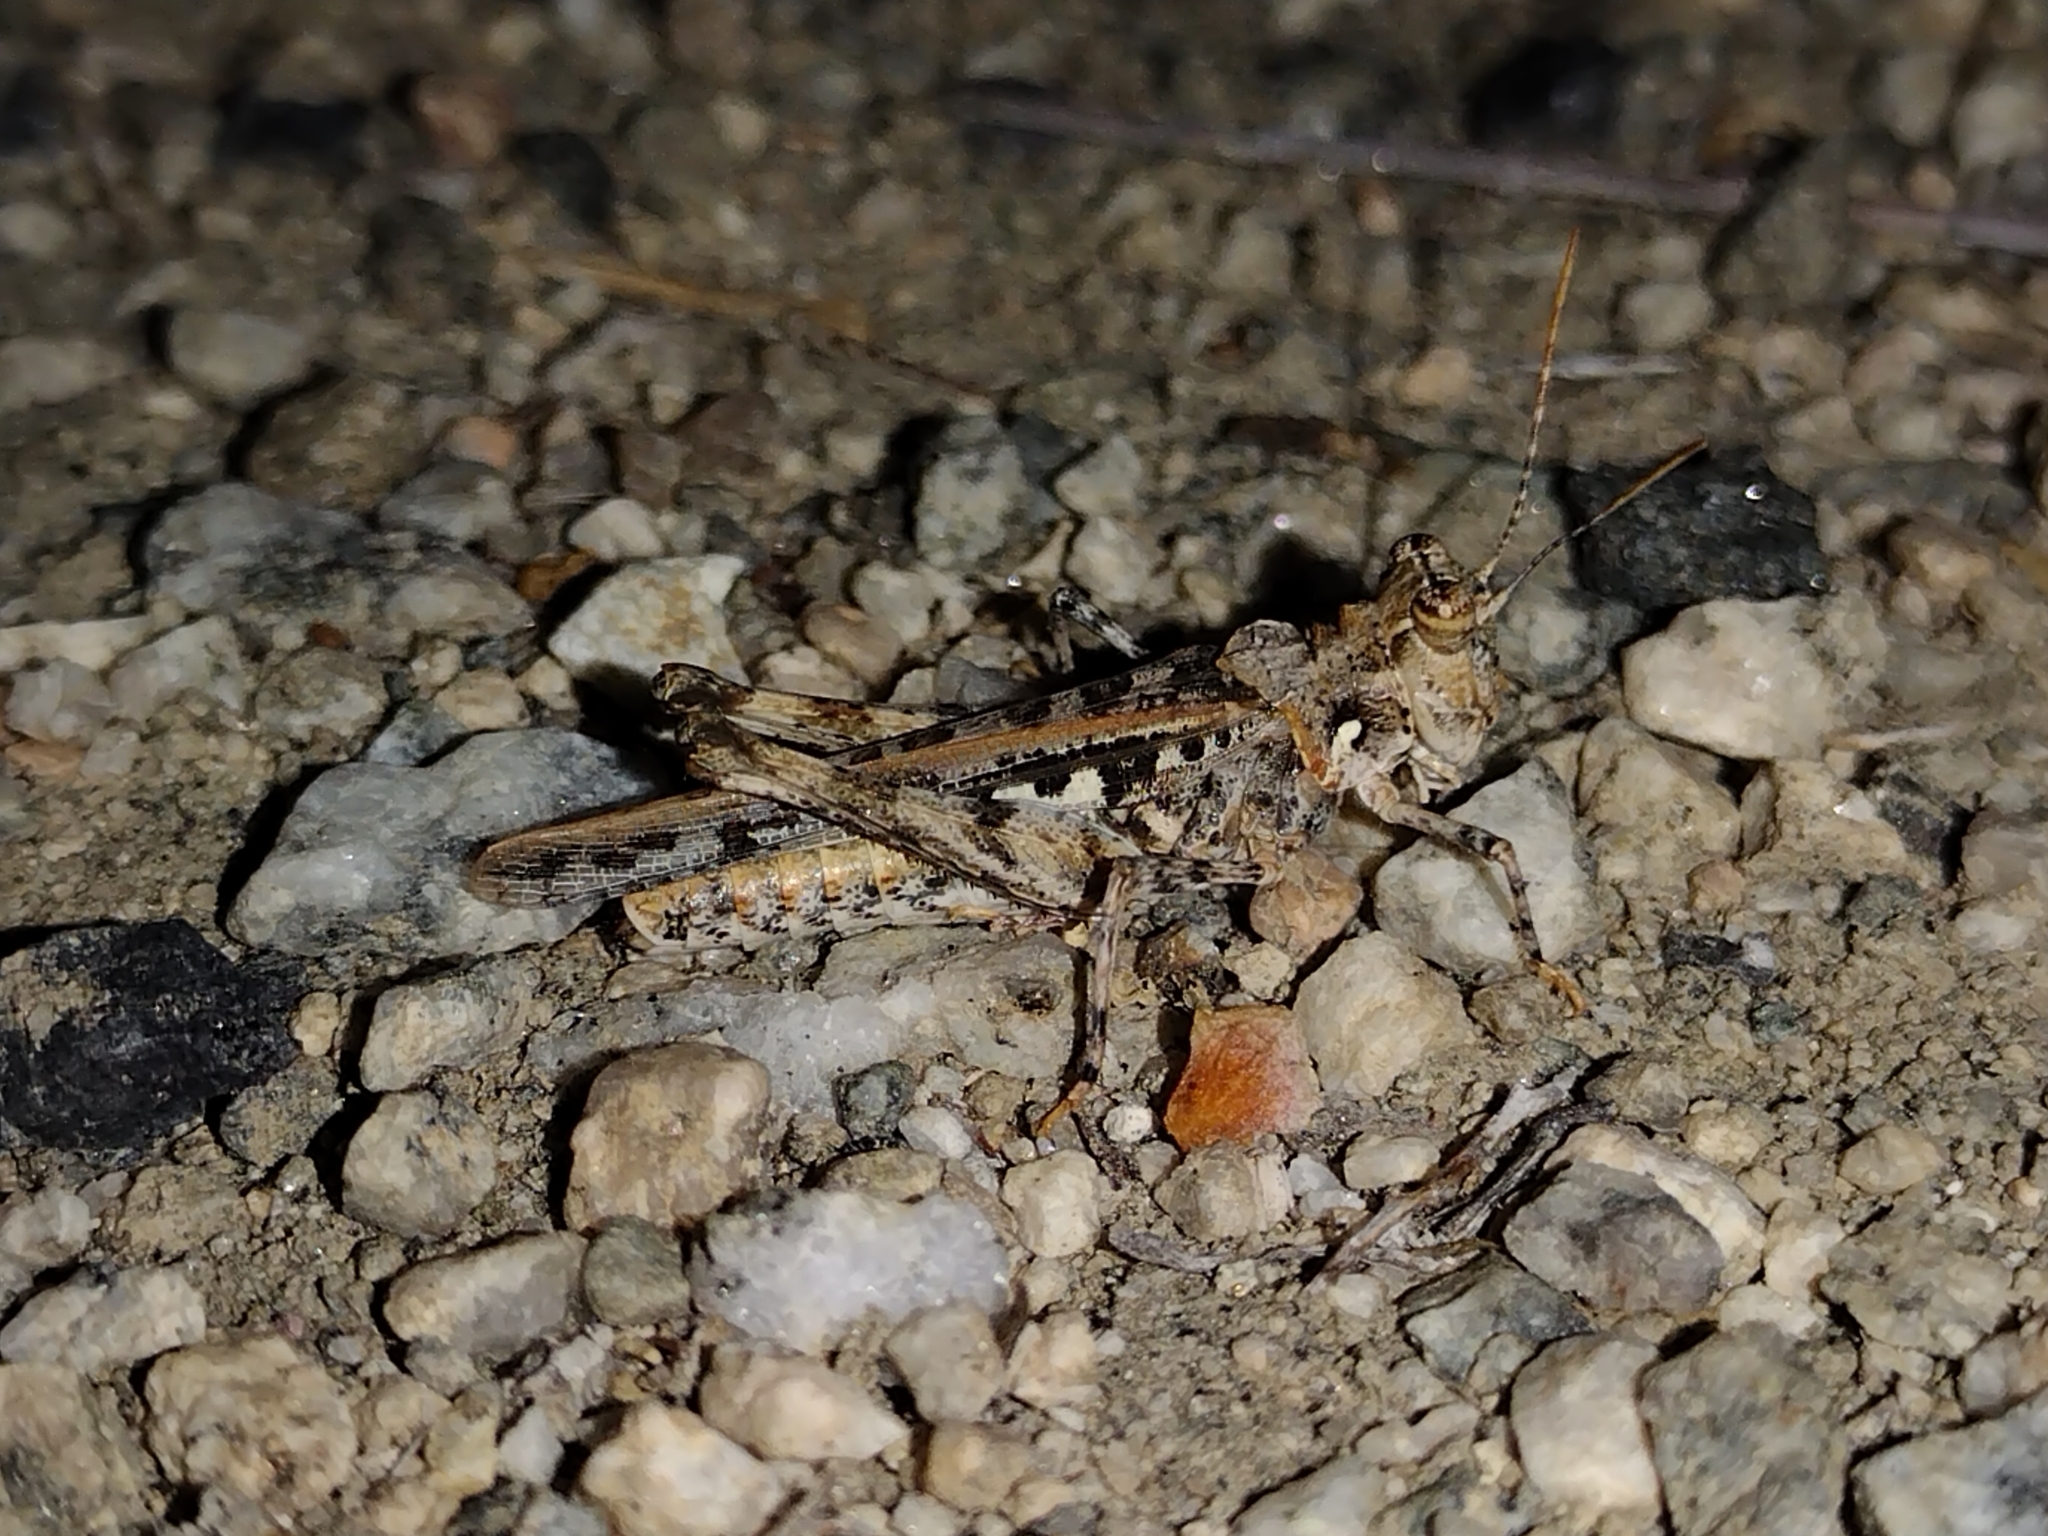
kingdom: Animalia
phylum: Arthropoda
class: Insecta
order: Orthoptera
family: Acrididae
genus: Derotmema
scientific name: Derotmema saussureanum
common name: Saussure's desert grasshopper
